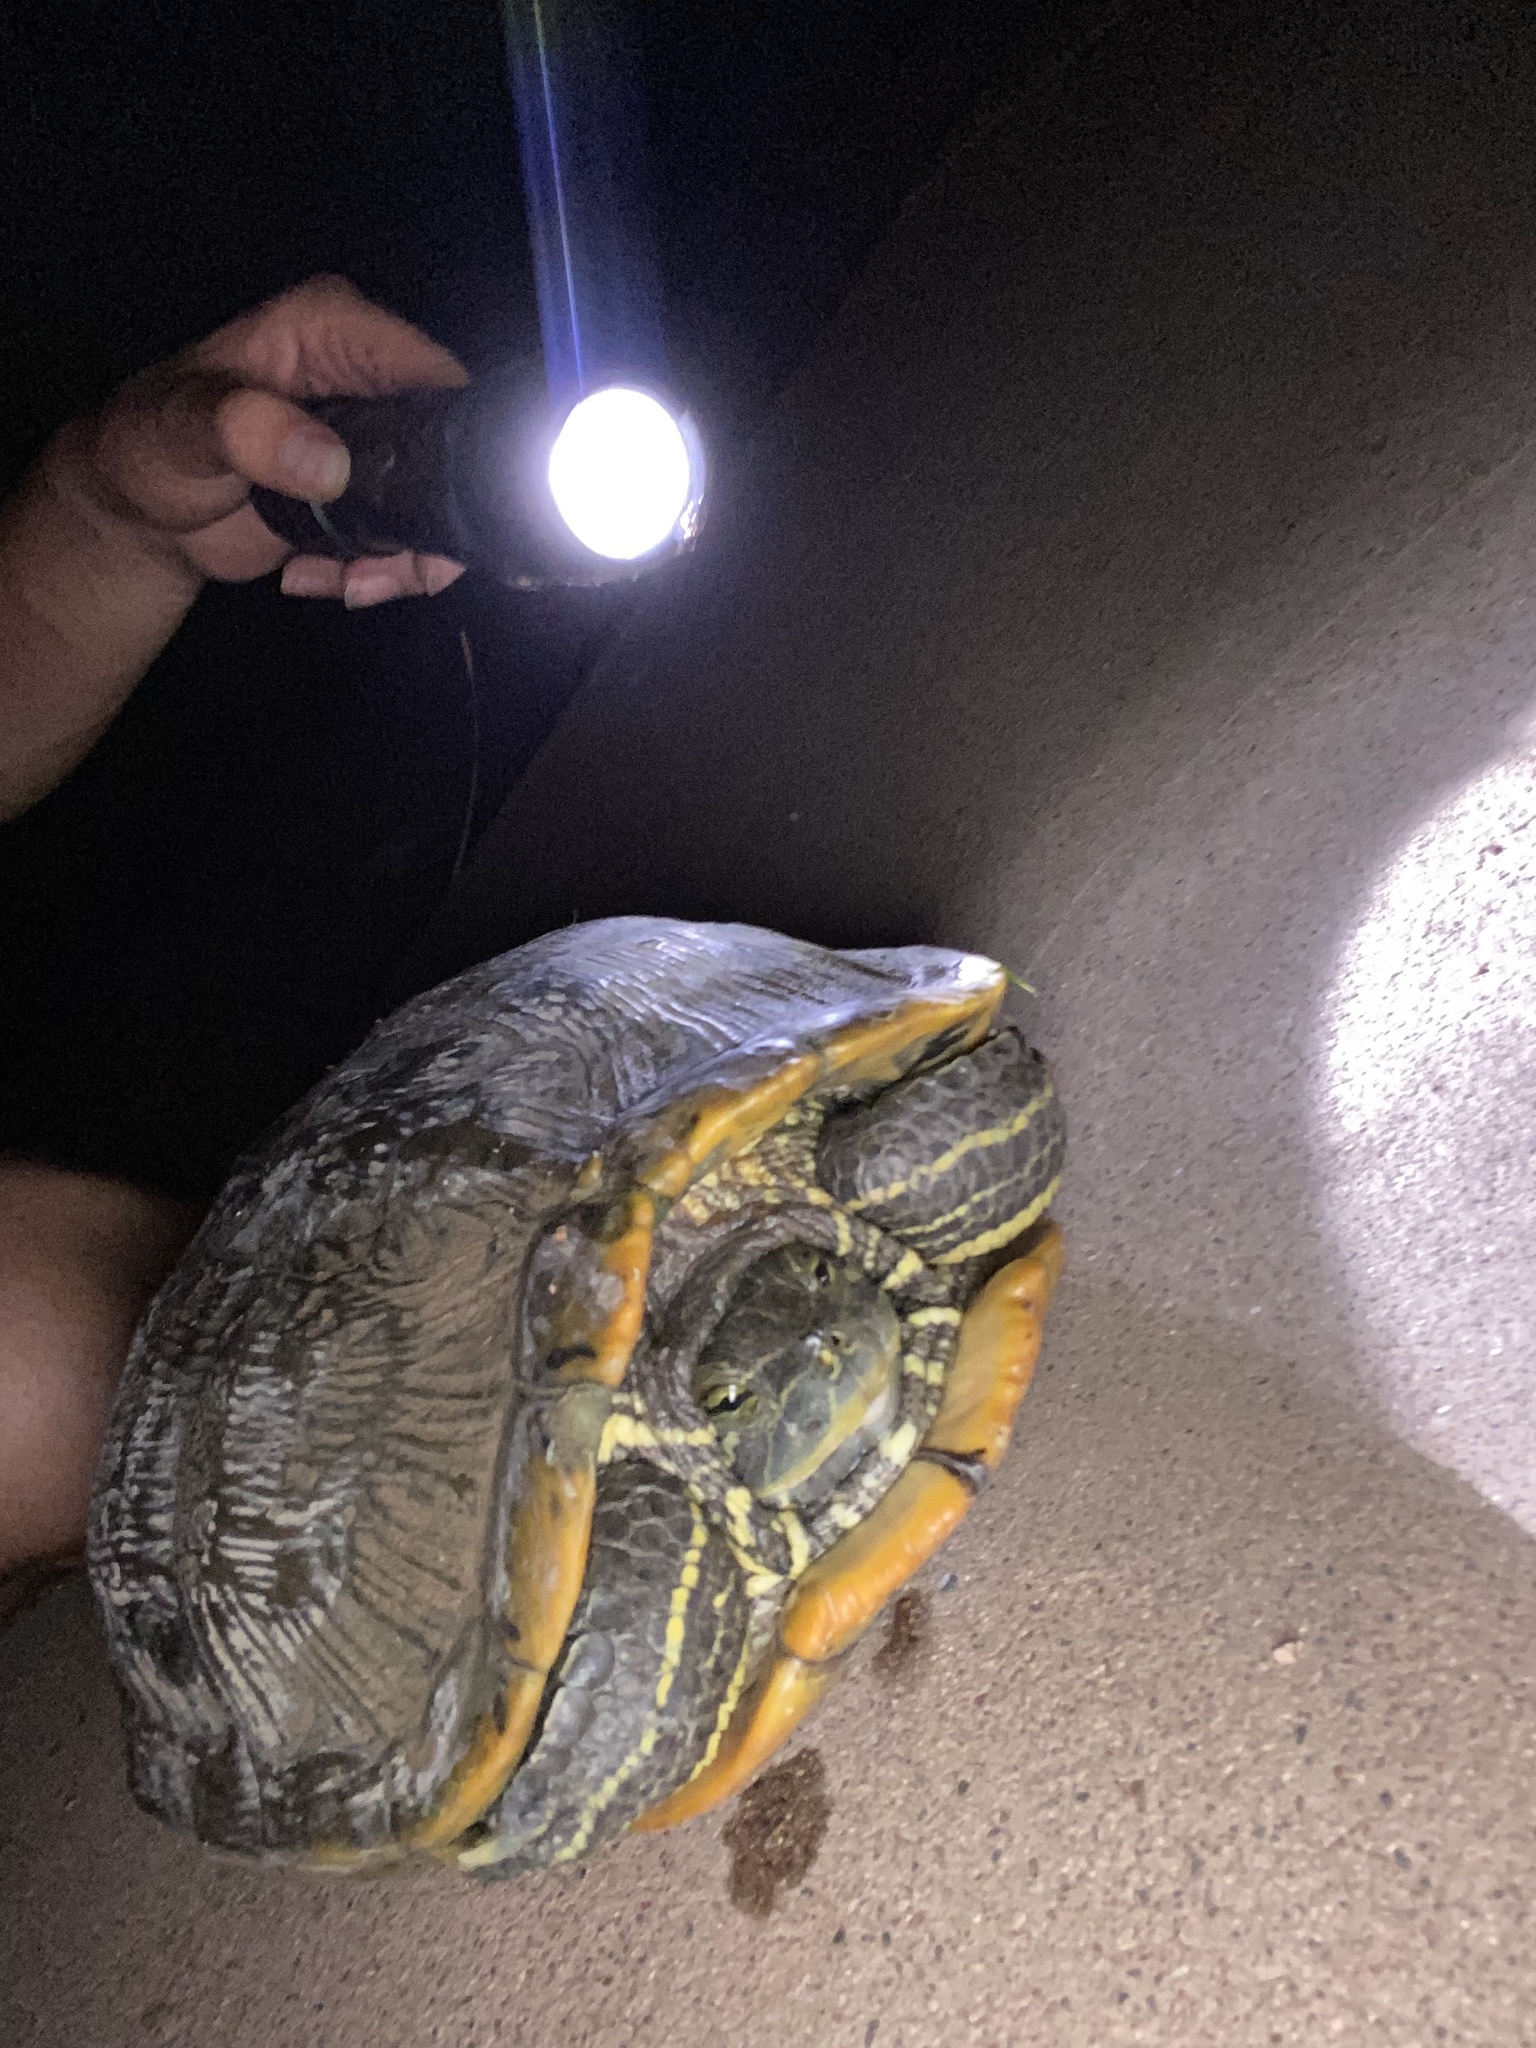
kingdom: Animalia
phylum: Chordata
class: Testudines
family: Emydidae
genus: Trachemys
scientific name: Trachemys scripta
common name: Slider
